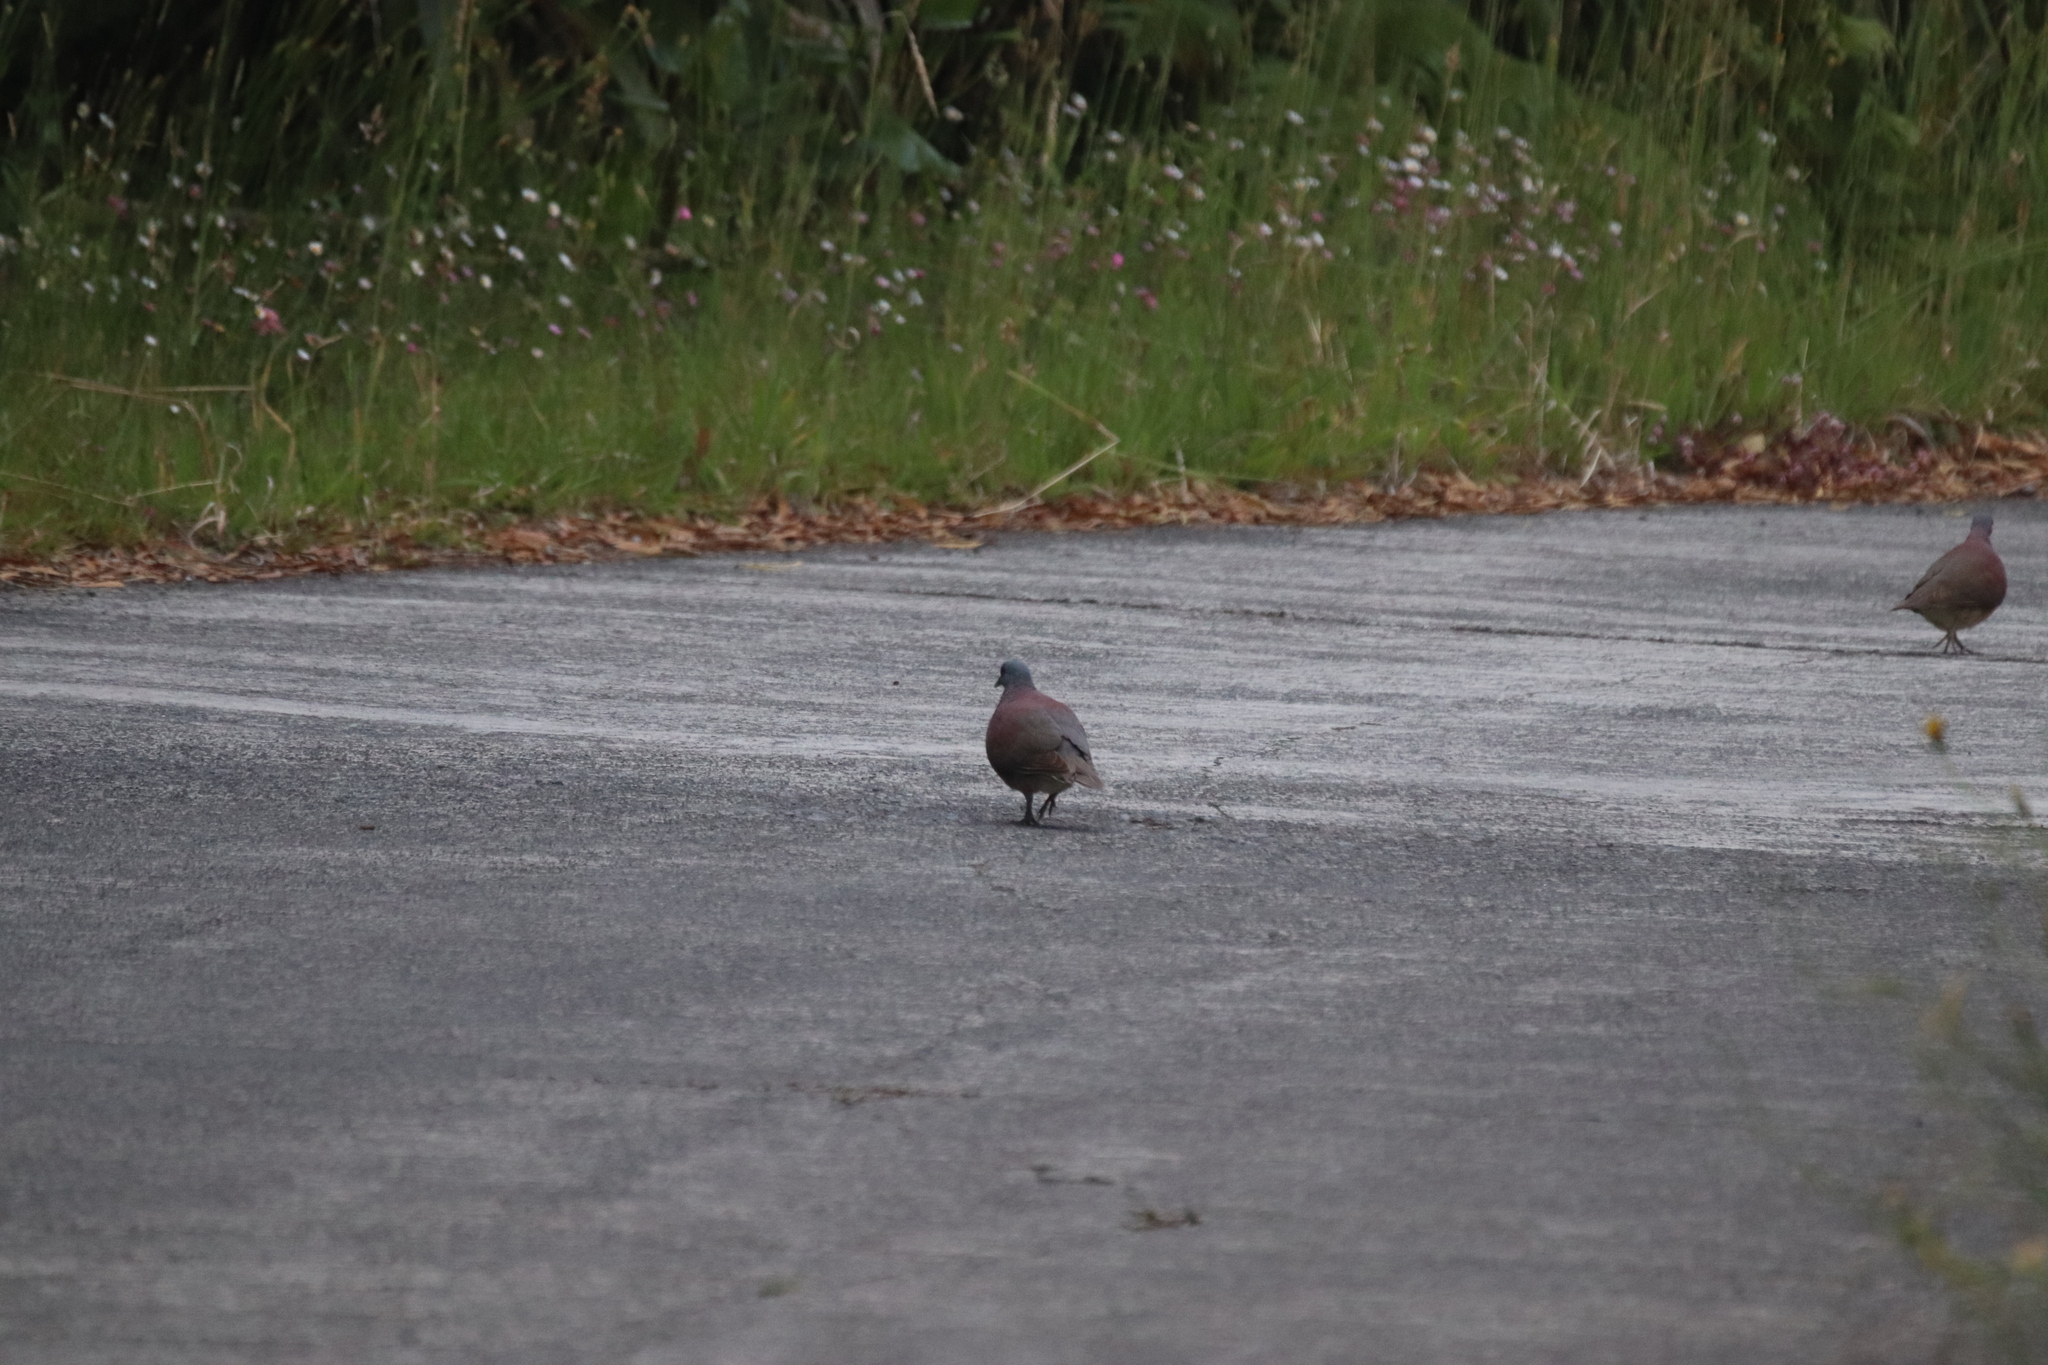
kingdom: Animalia
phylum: Chordata
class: Aves
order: Columbiformes
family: Columbidae
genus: Nesoenas
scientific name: Nesoenas picturatus
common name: Malagasy turtle dove
